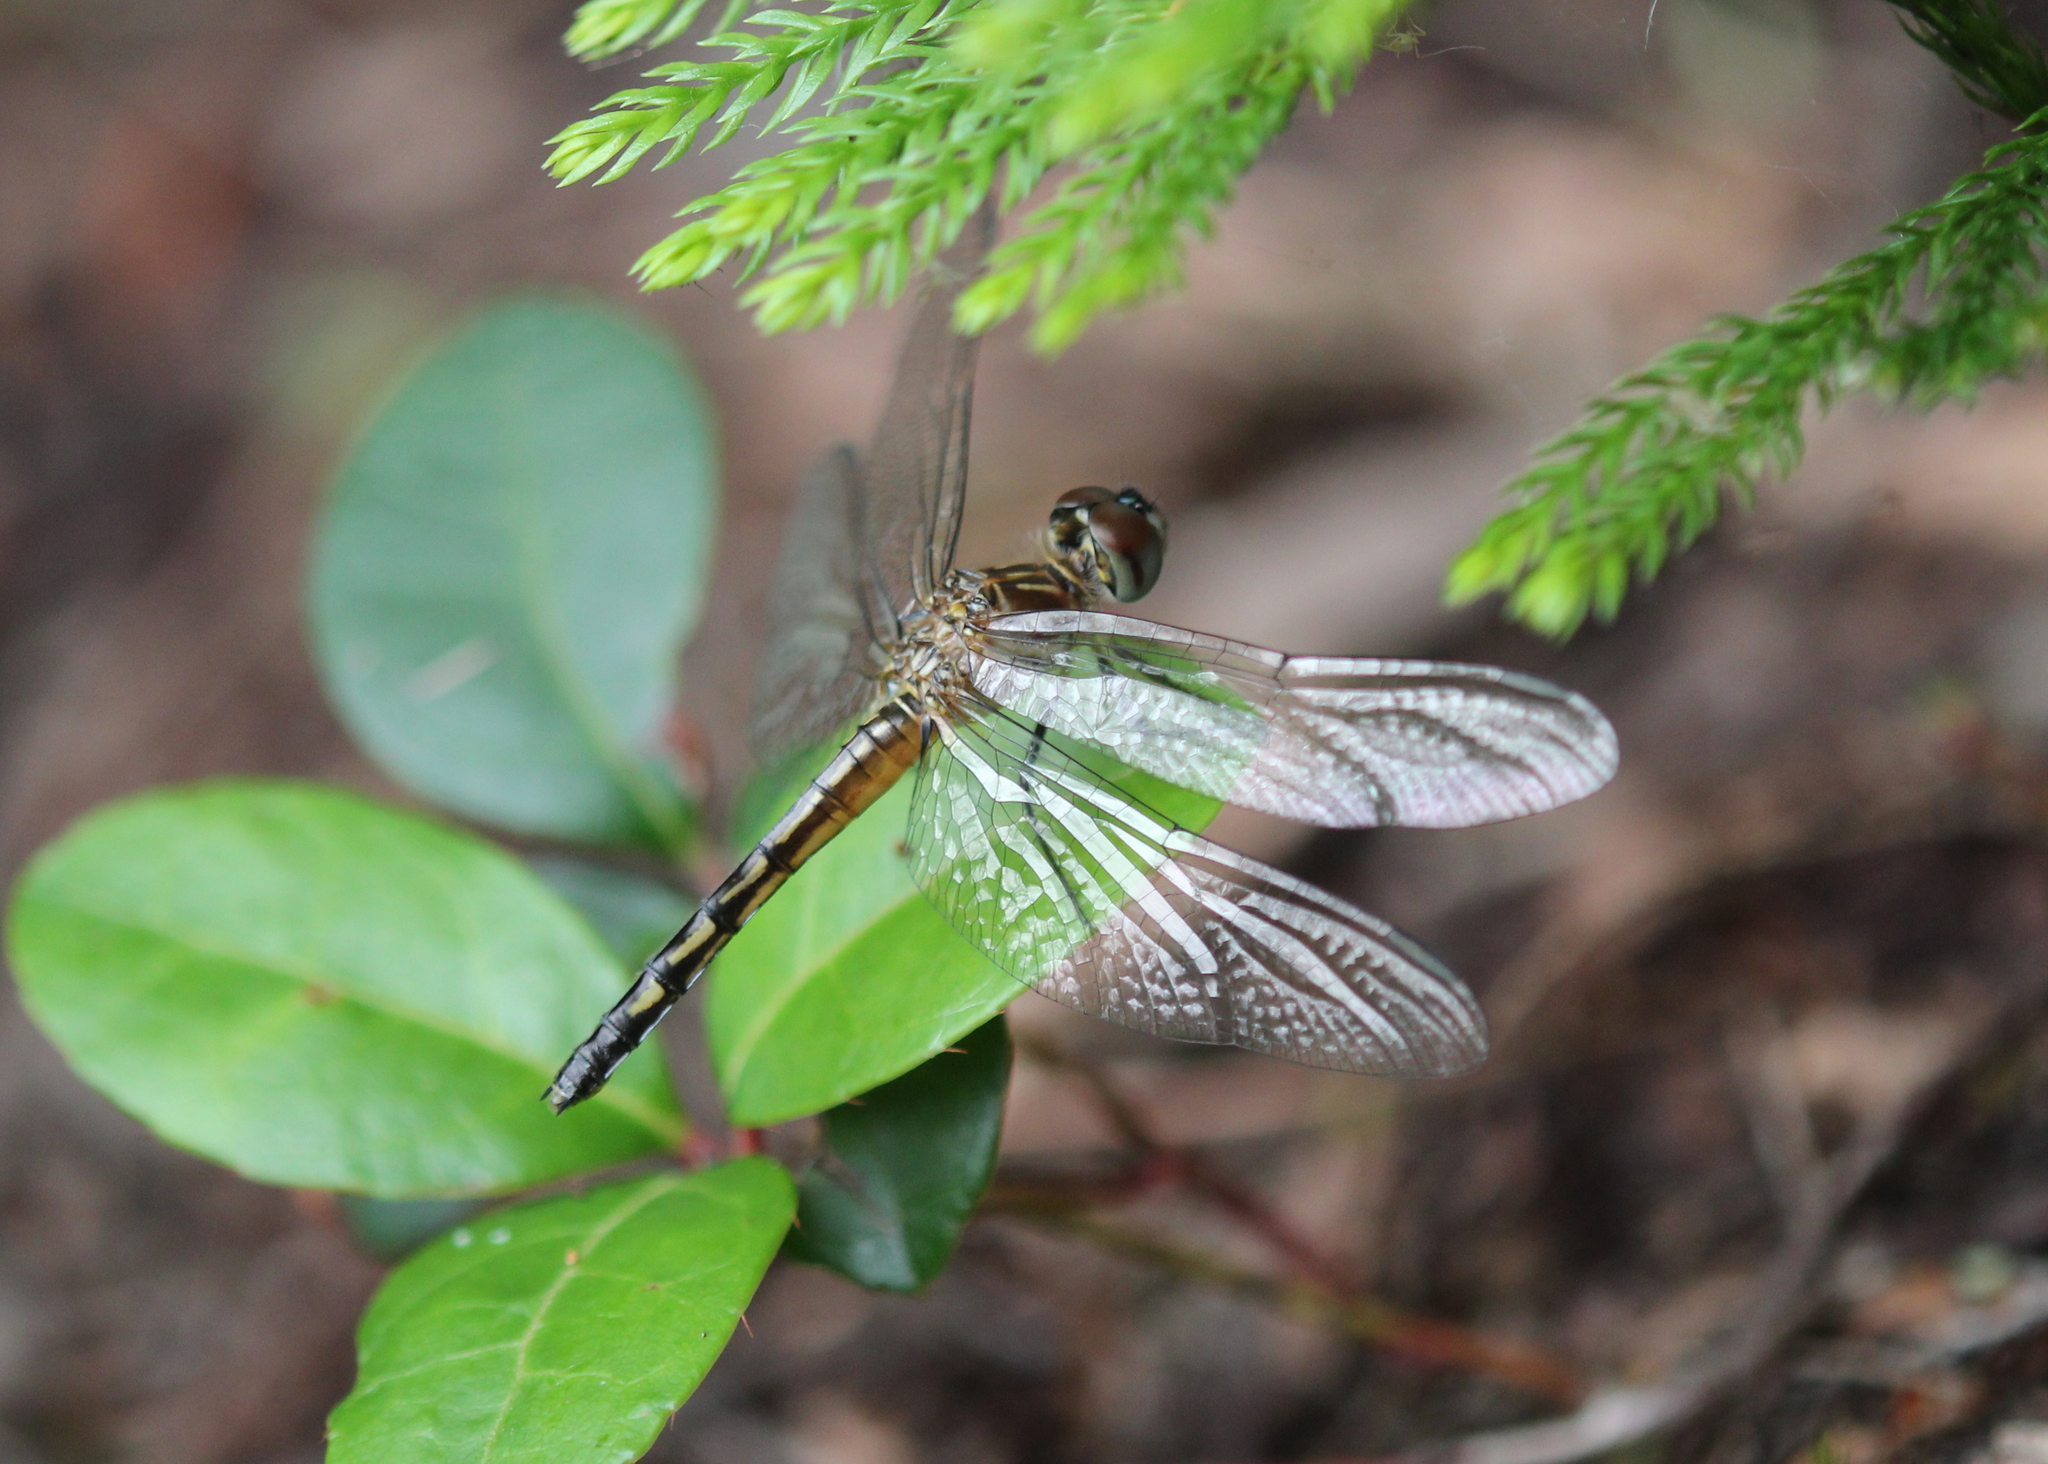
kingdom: Animalia
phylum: Arthropoda
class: Insecta
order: Odonata
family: Libellulidae
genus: Pachydiplax
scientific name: Pachydiplax longipennis
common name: Blue dasher
